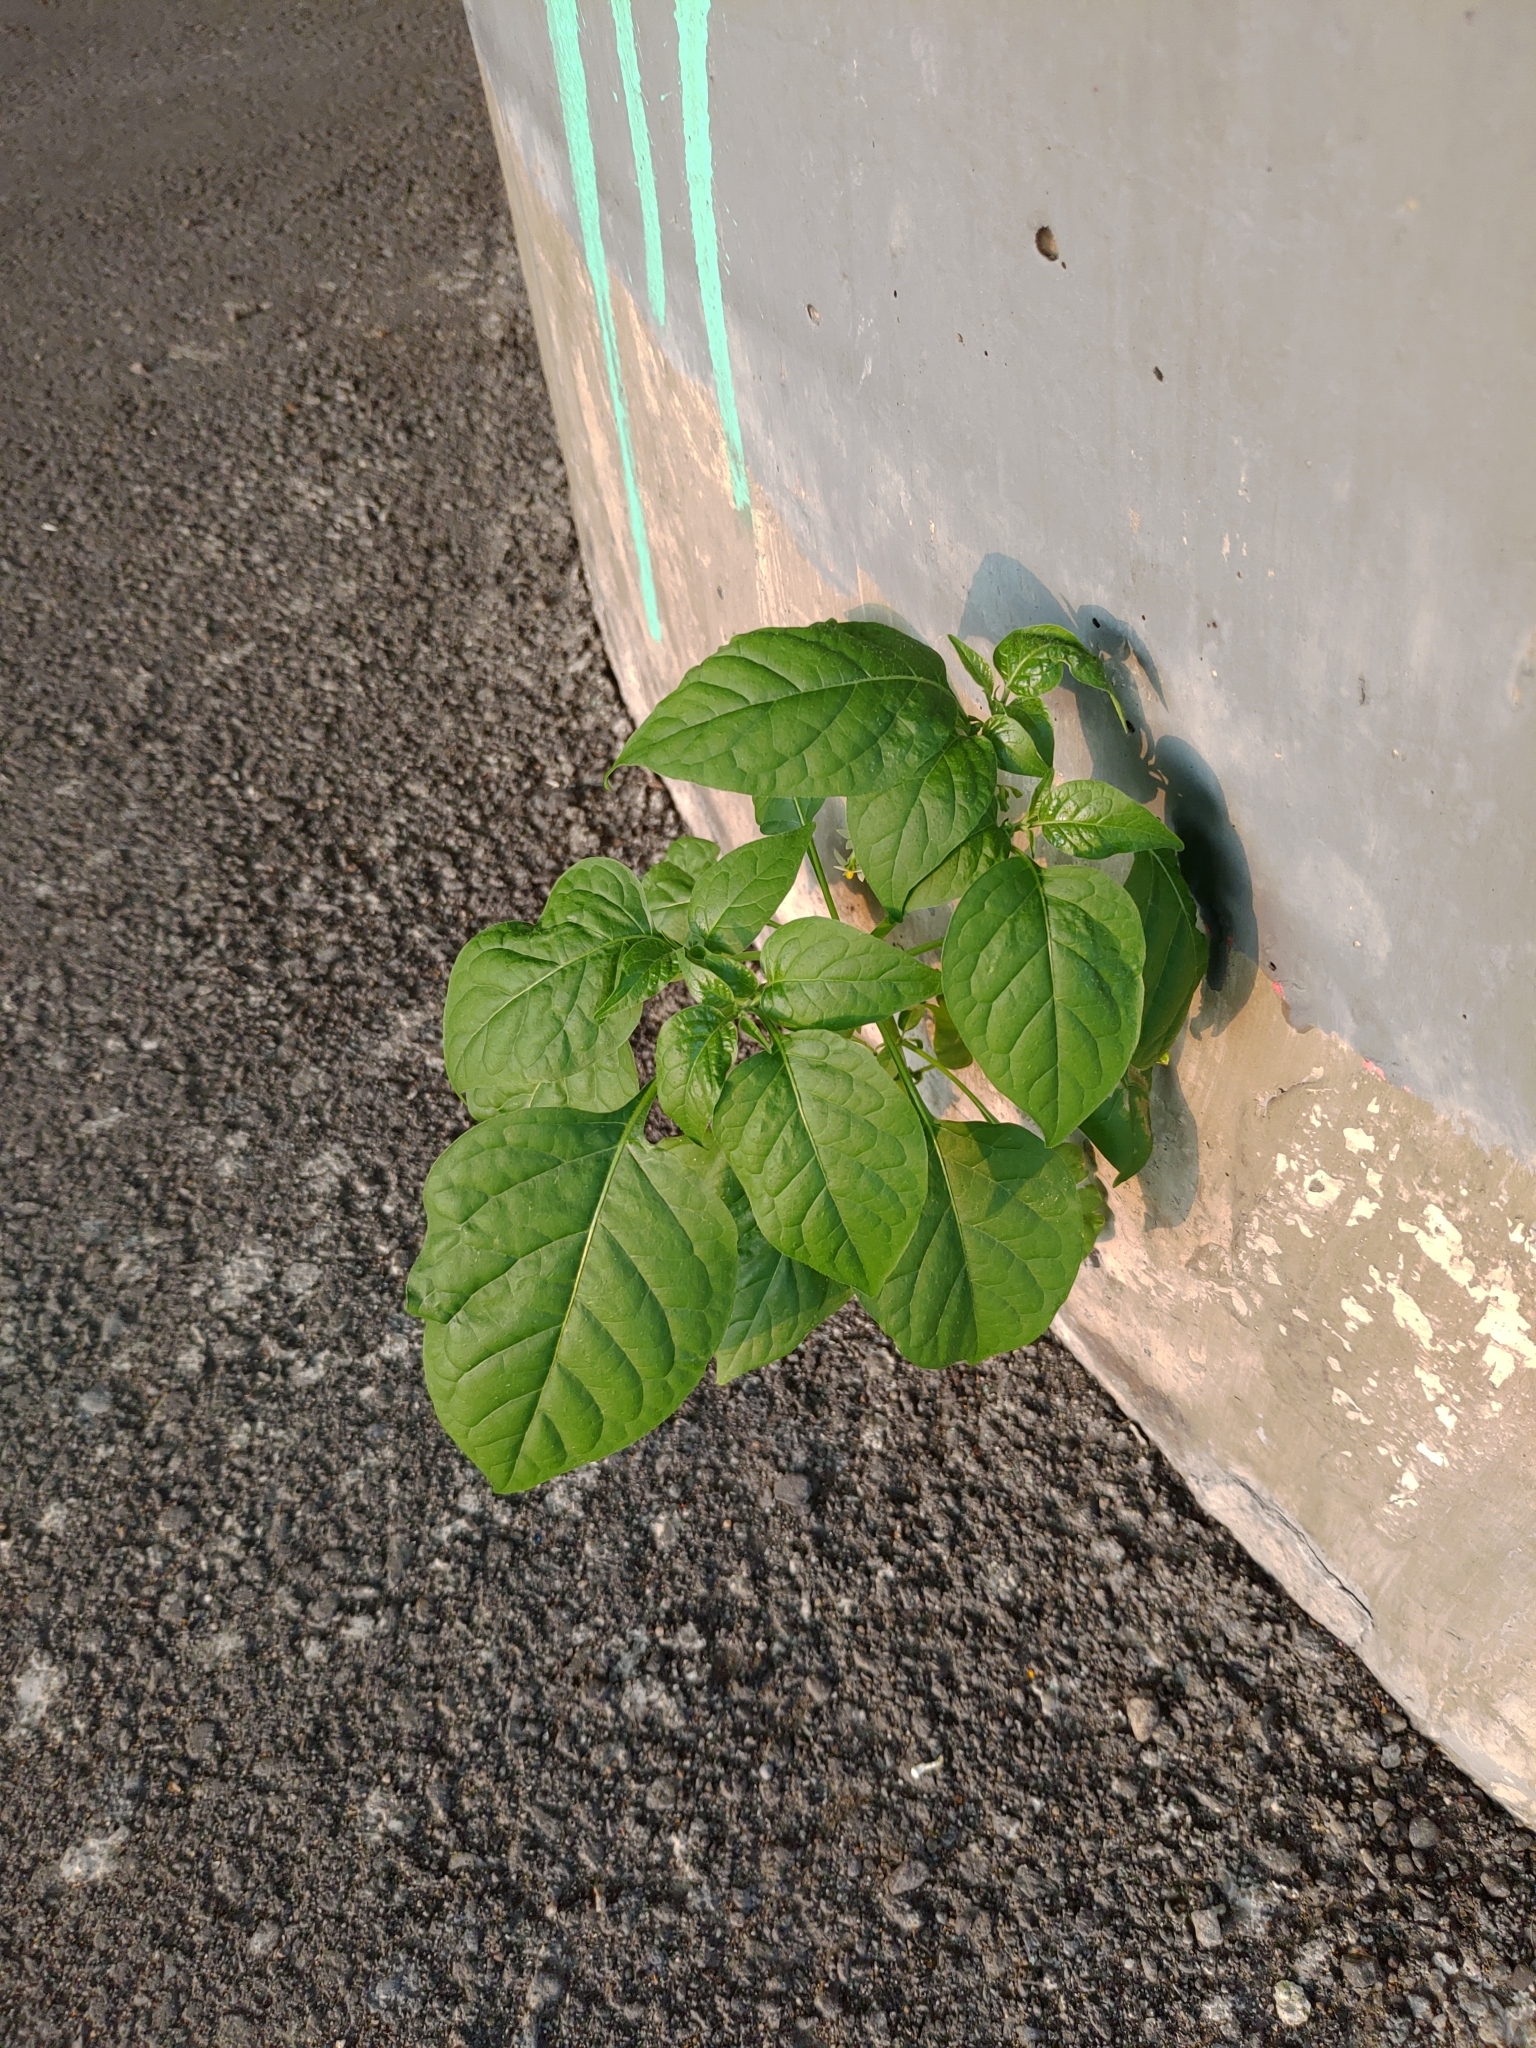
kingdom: Plantae
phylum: Tracheophyta
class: Magnoliopsida
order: Solanales
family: Solanaceae
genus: Solanum
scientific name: Solanum
